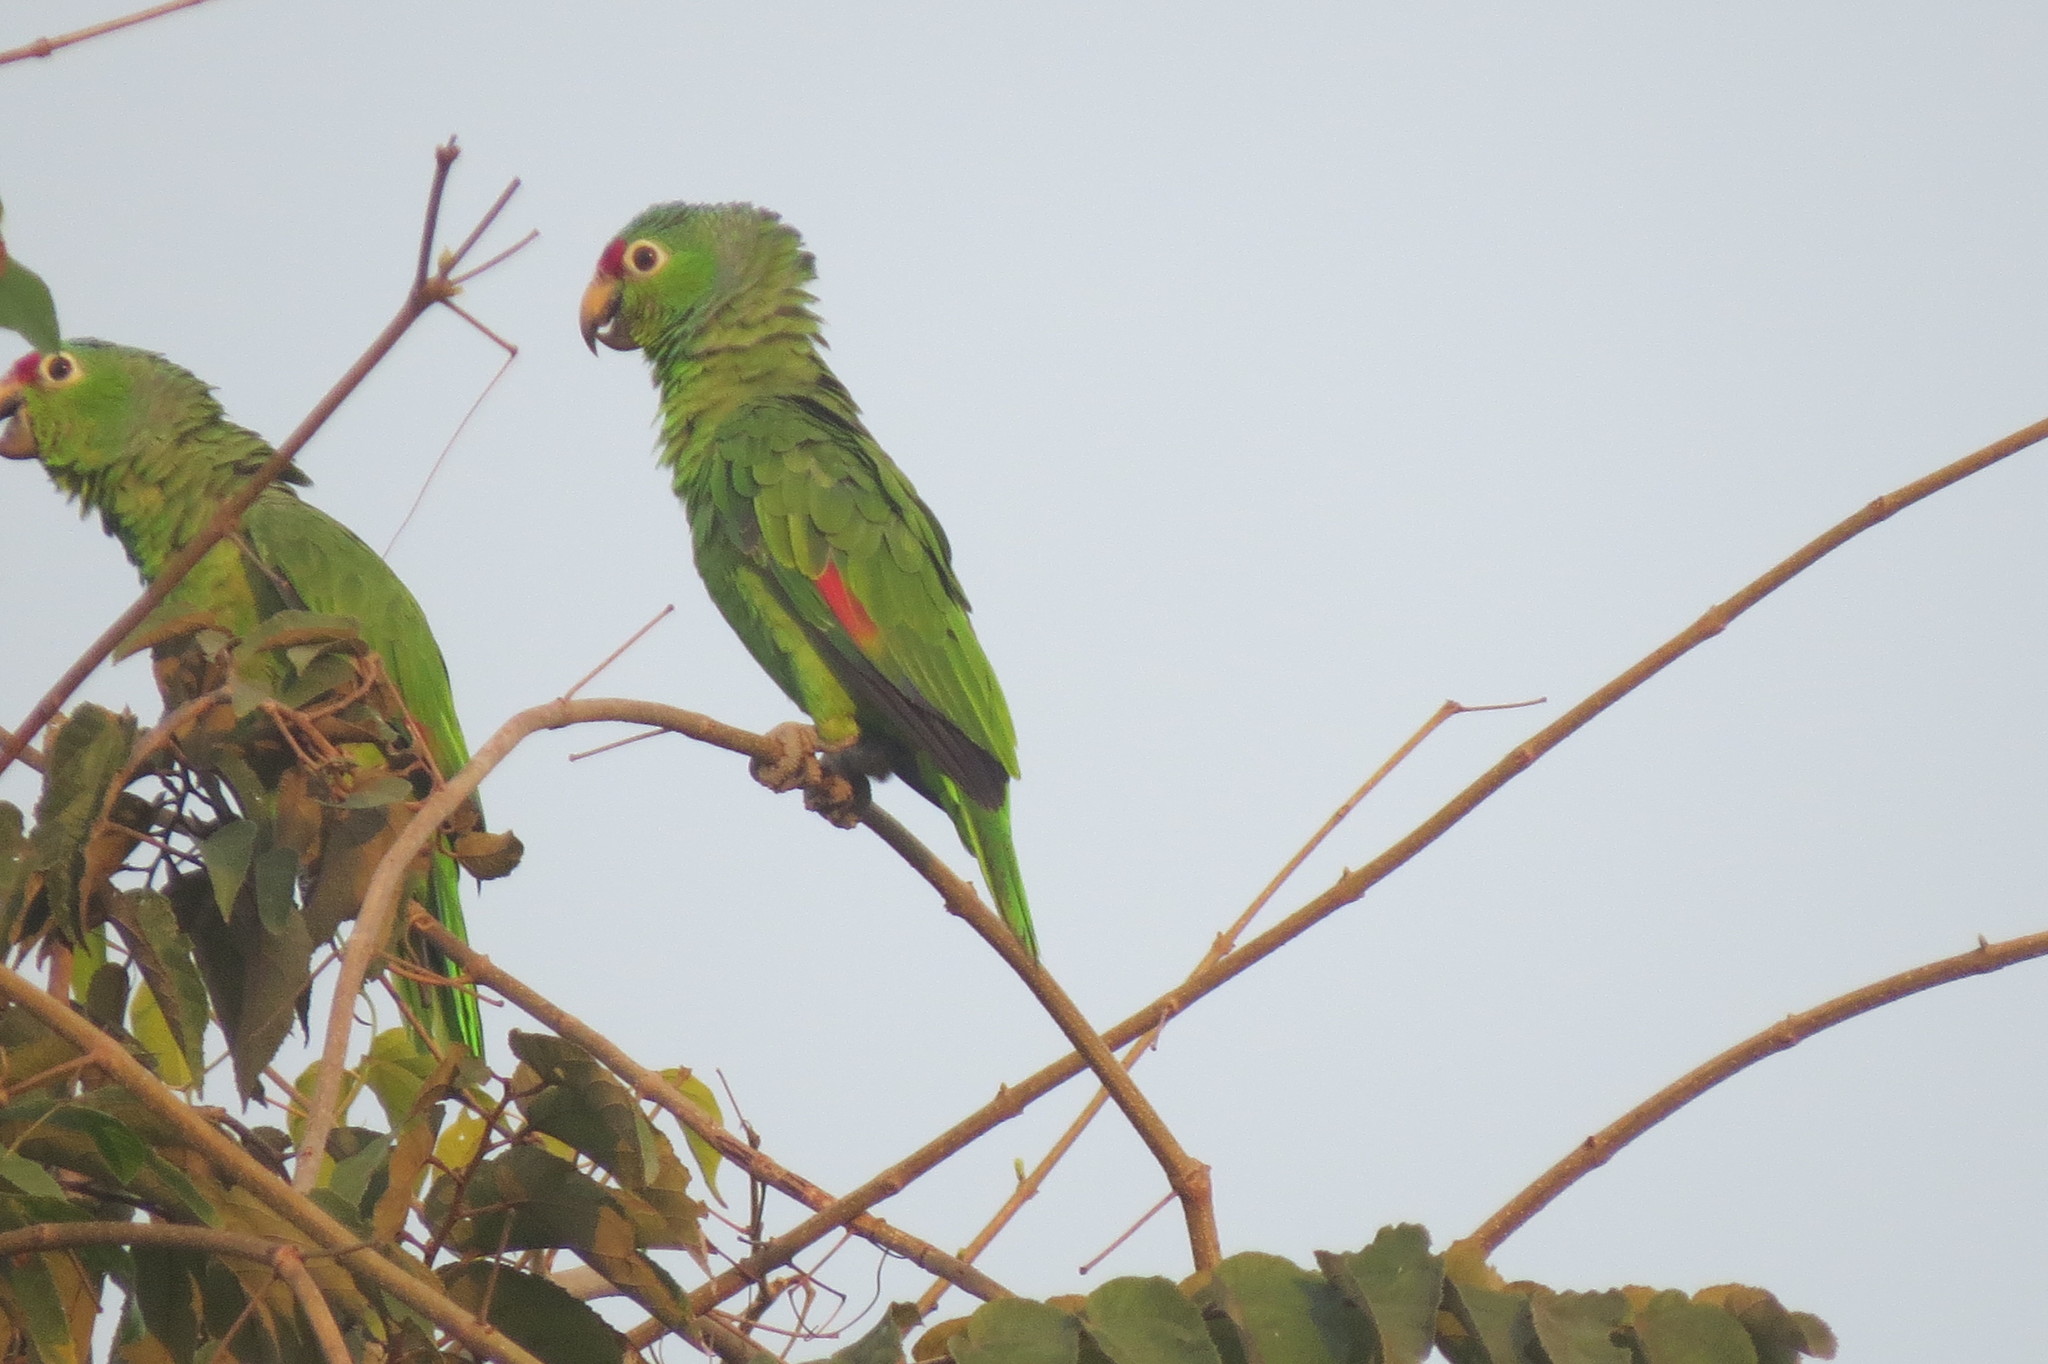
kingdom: Animalia
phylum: Chordata
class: Aves
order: Psittaciformes
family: Psittacidae
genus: Amazona
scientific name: Amazona autumnalis
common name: Red-lored amazon
